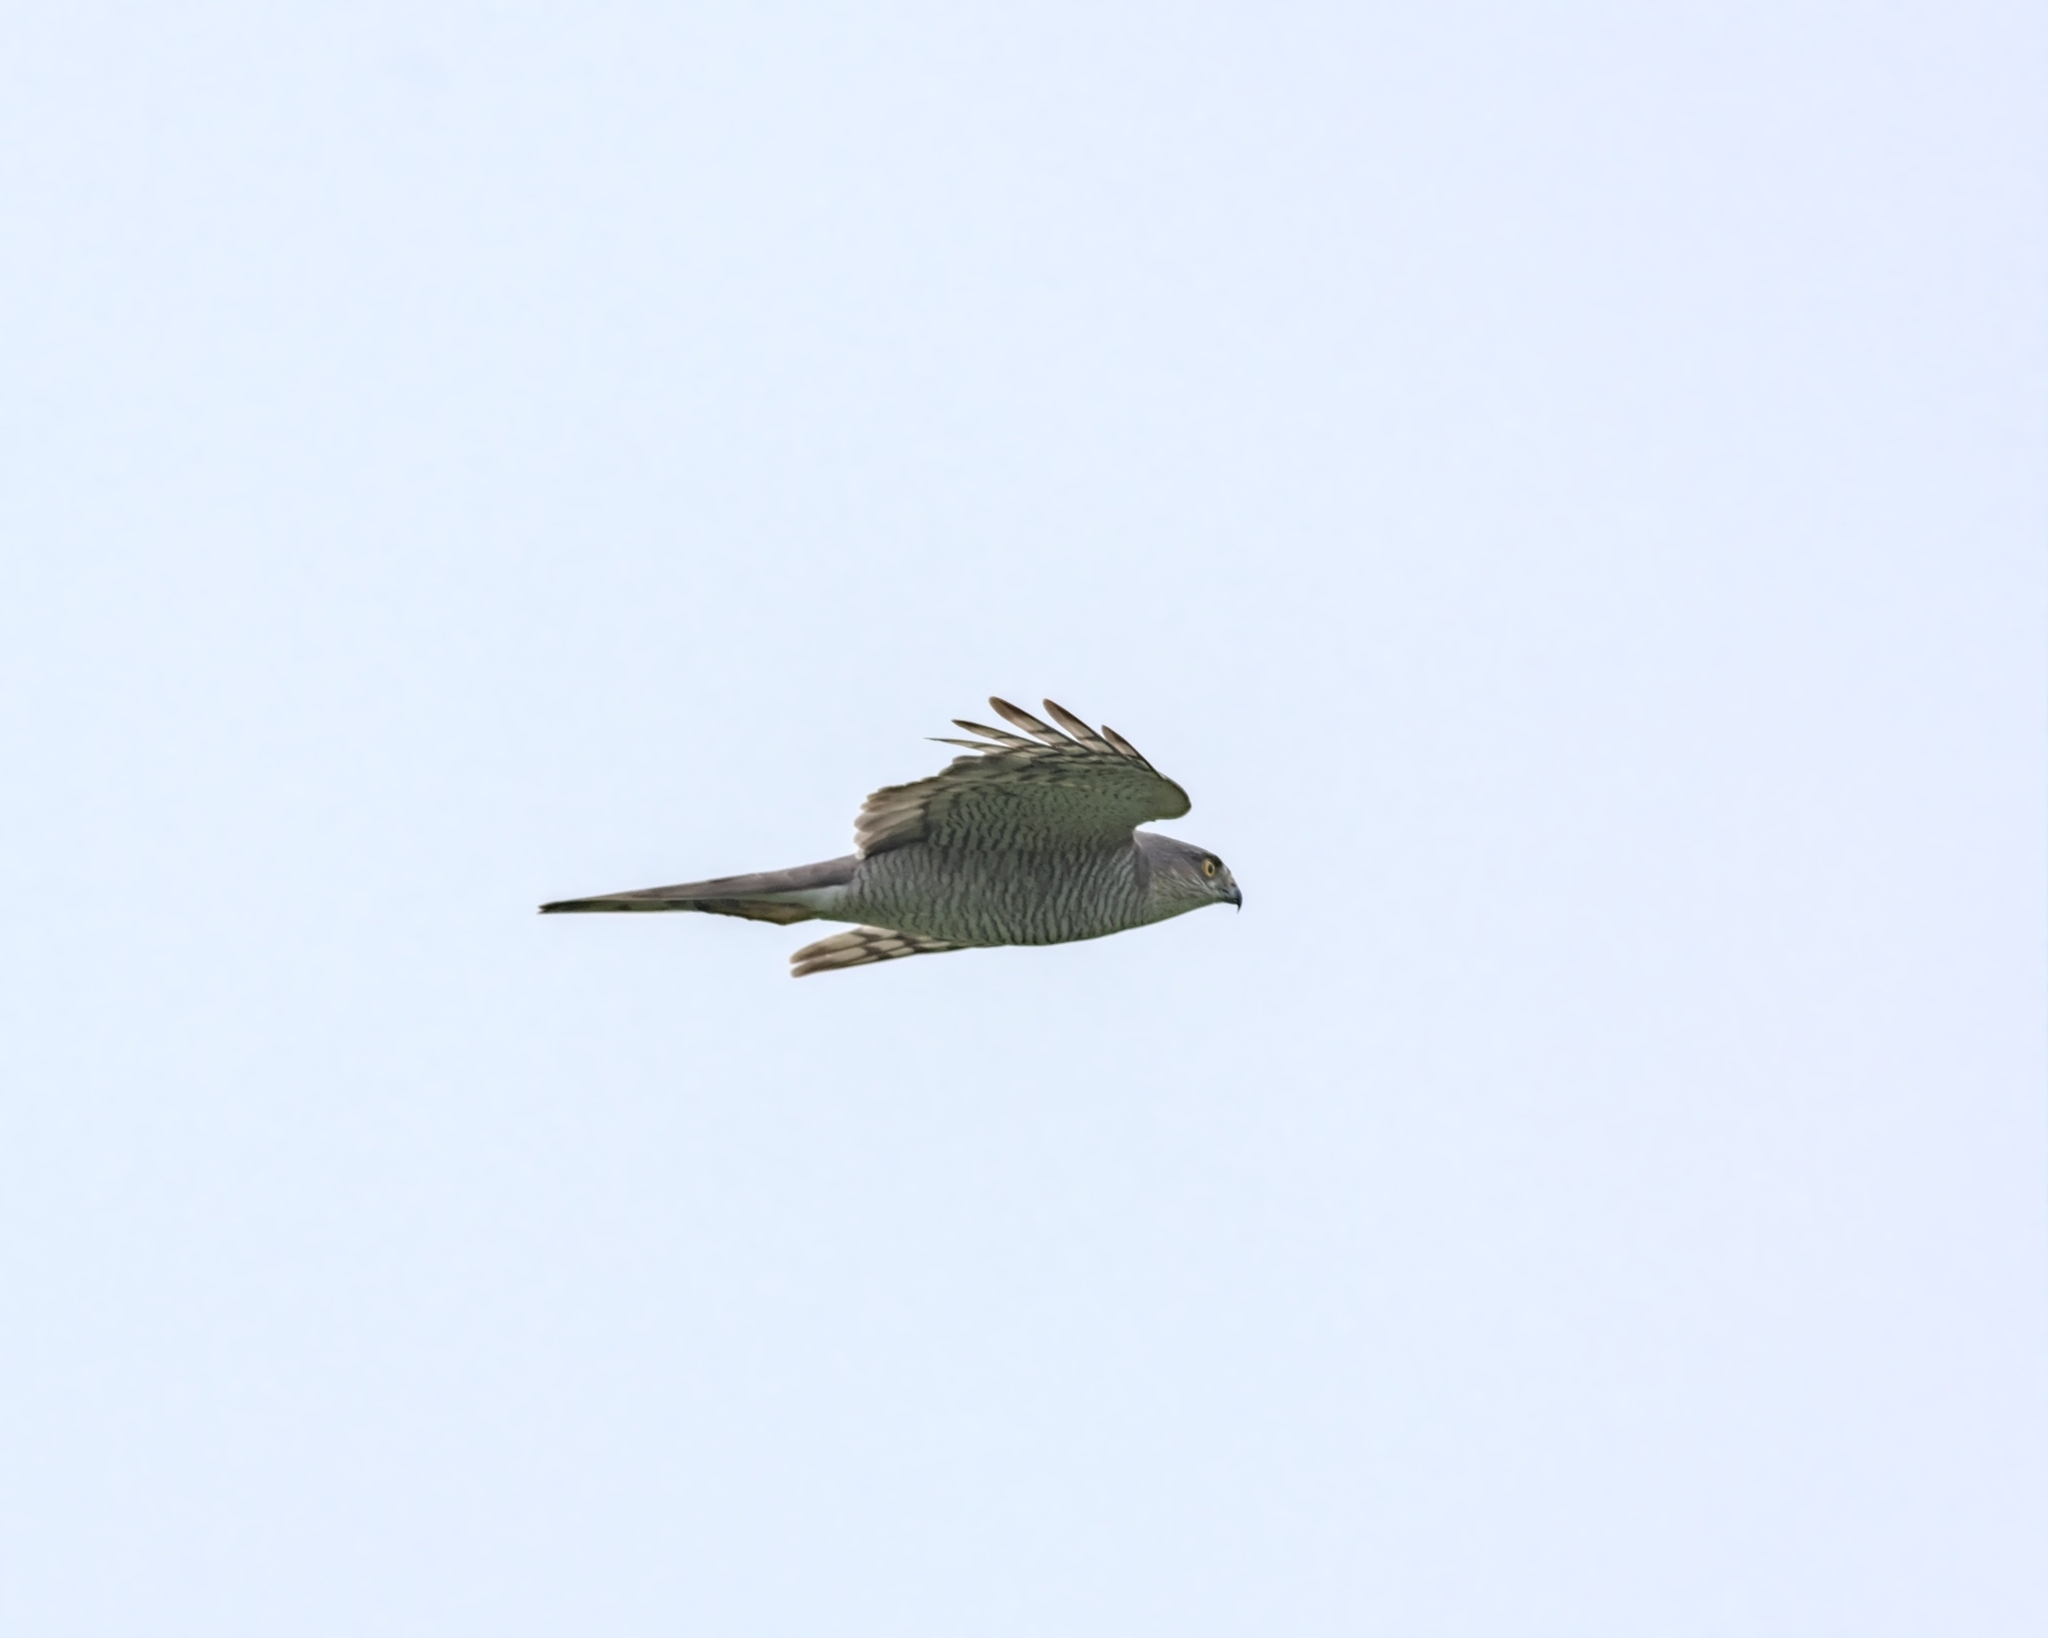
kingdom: Animalia
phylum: Chordata
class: Aves
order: Accipitriformes
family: Accipitridae
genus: Accipiter
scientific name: Accipiter nisus
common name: Eurasian sparrowhawk
